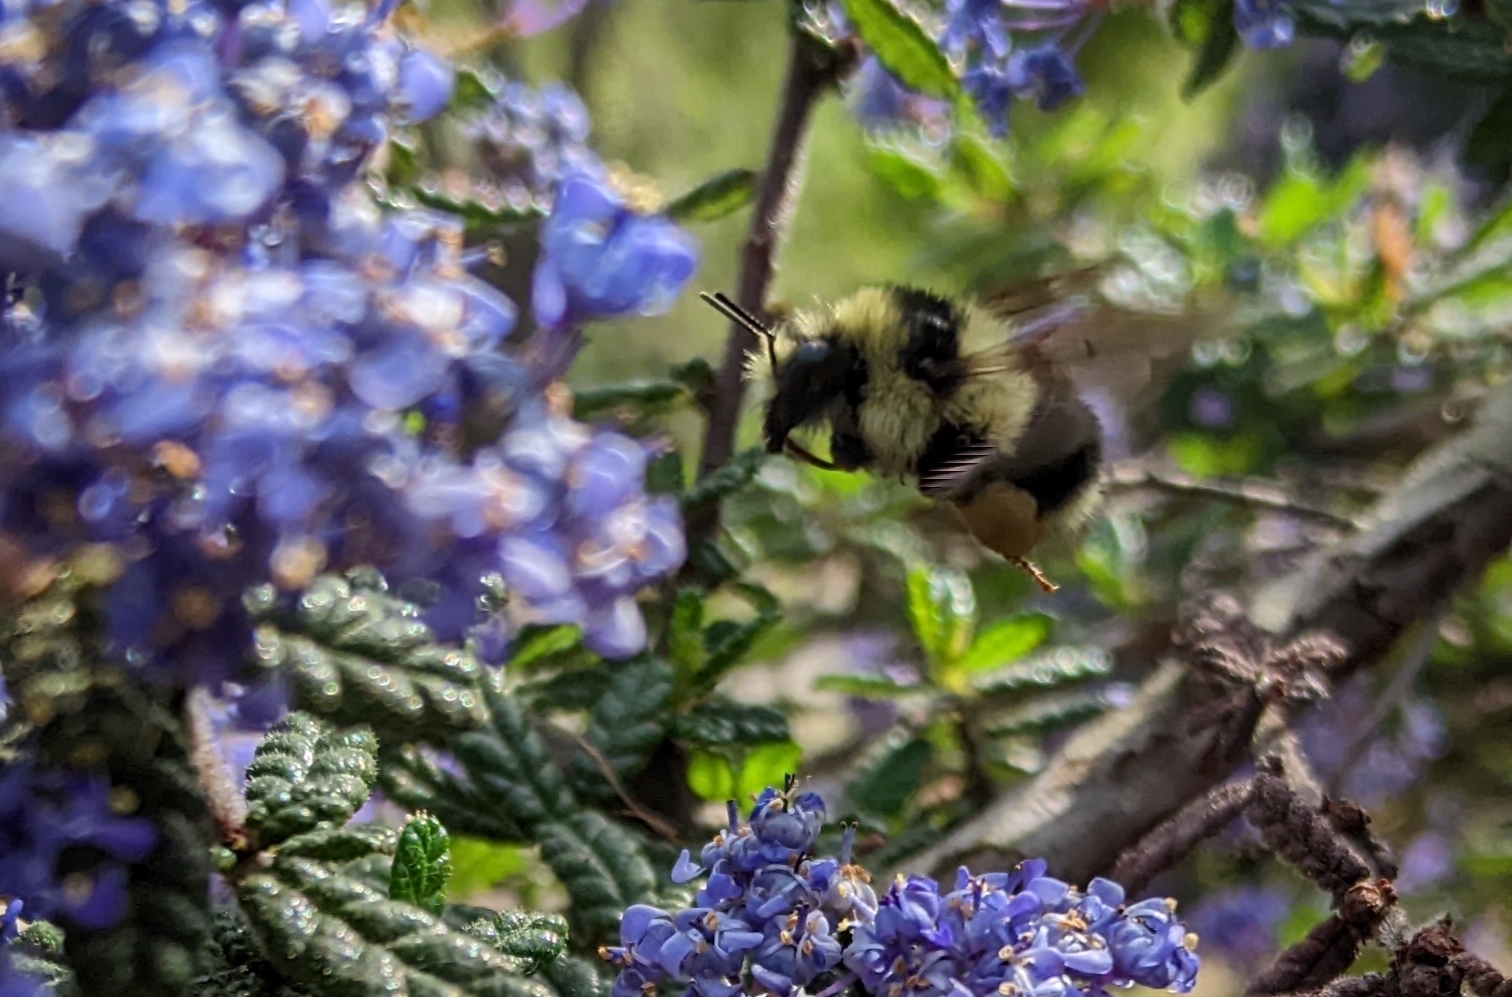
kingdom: Animalia
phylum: Arthropoda
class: Insecta
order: Hymenoptera
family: Apidae
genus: Bombus
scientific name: Bombus melanopygus
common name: Black tail bumble bee
